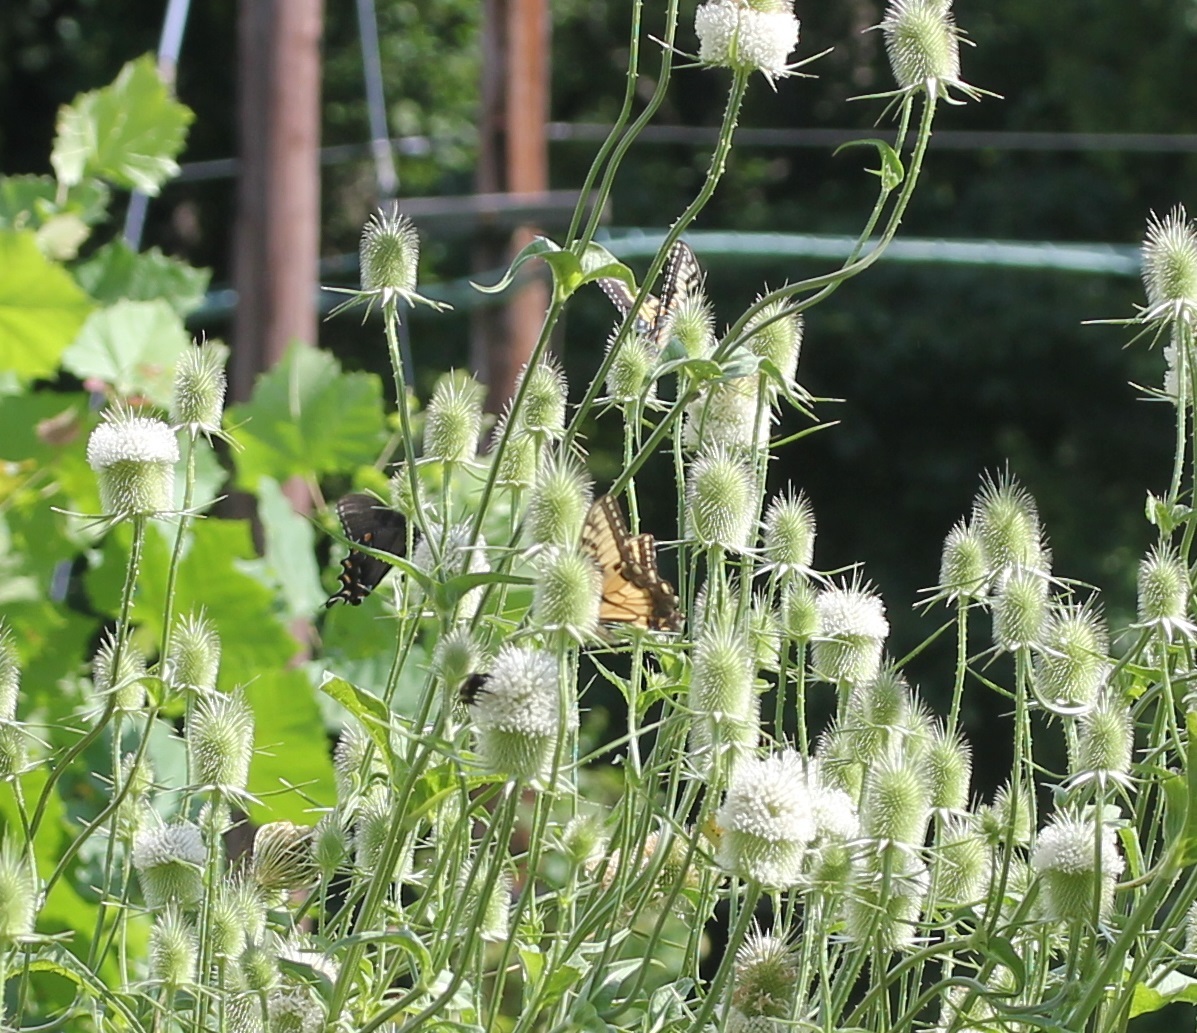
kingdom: Animalia
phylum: Arthropoda
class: Insecta
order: Lepidoptera
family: Papilionidae
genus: Papilio
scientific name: Papilio glaucus
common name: Tiger swallowtail
